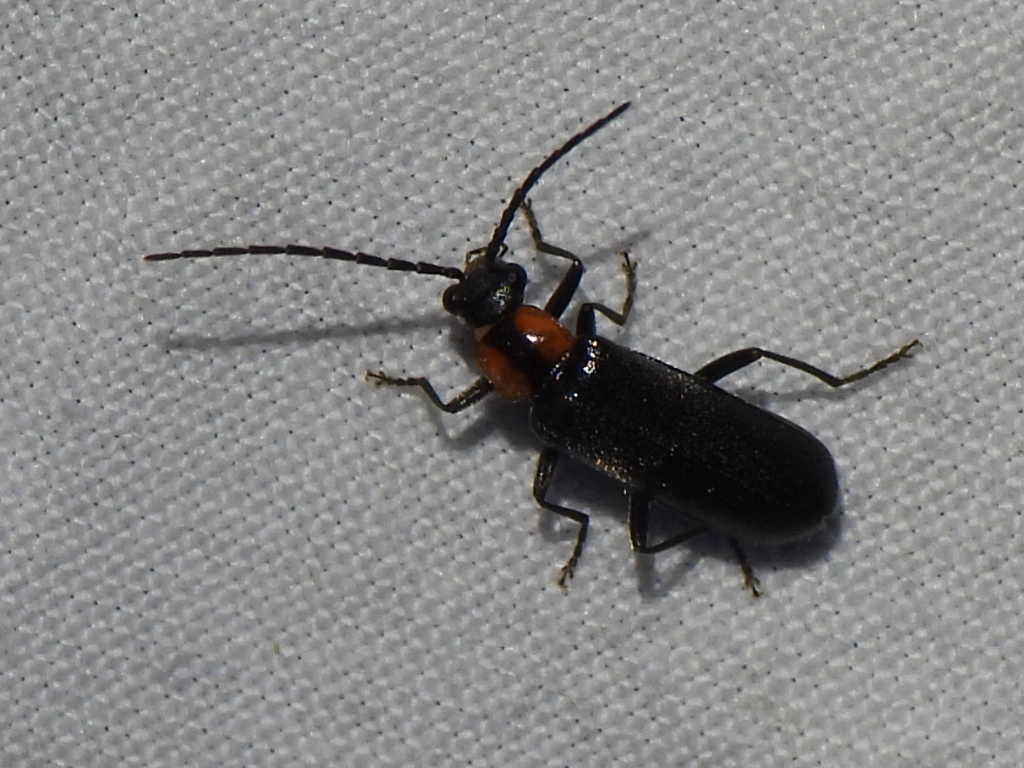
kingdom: Animalia
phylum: Arthropoda
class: Insecta
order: Coleoptera
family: Cantharidae
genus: Rhagonycha
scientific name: Rhagonycha lineola
